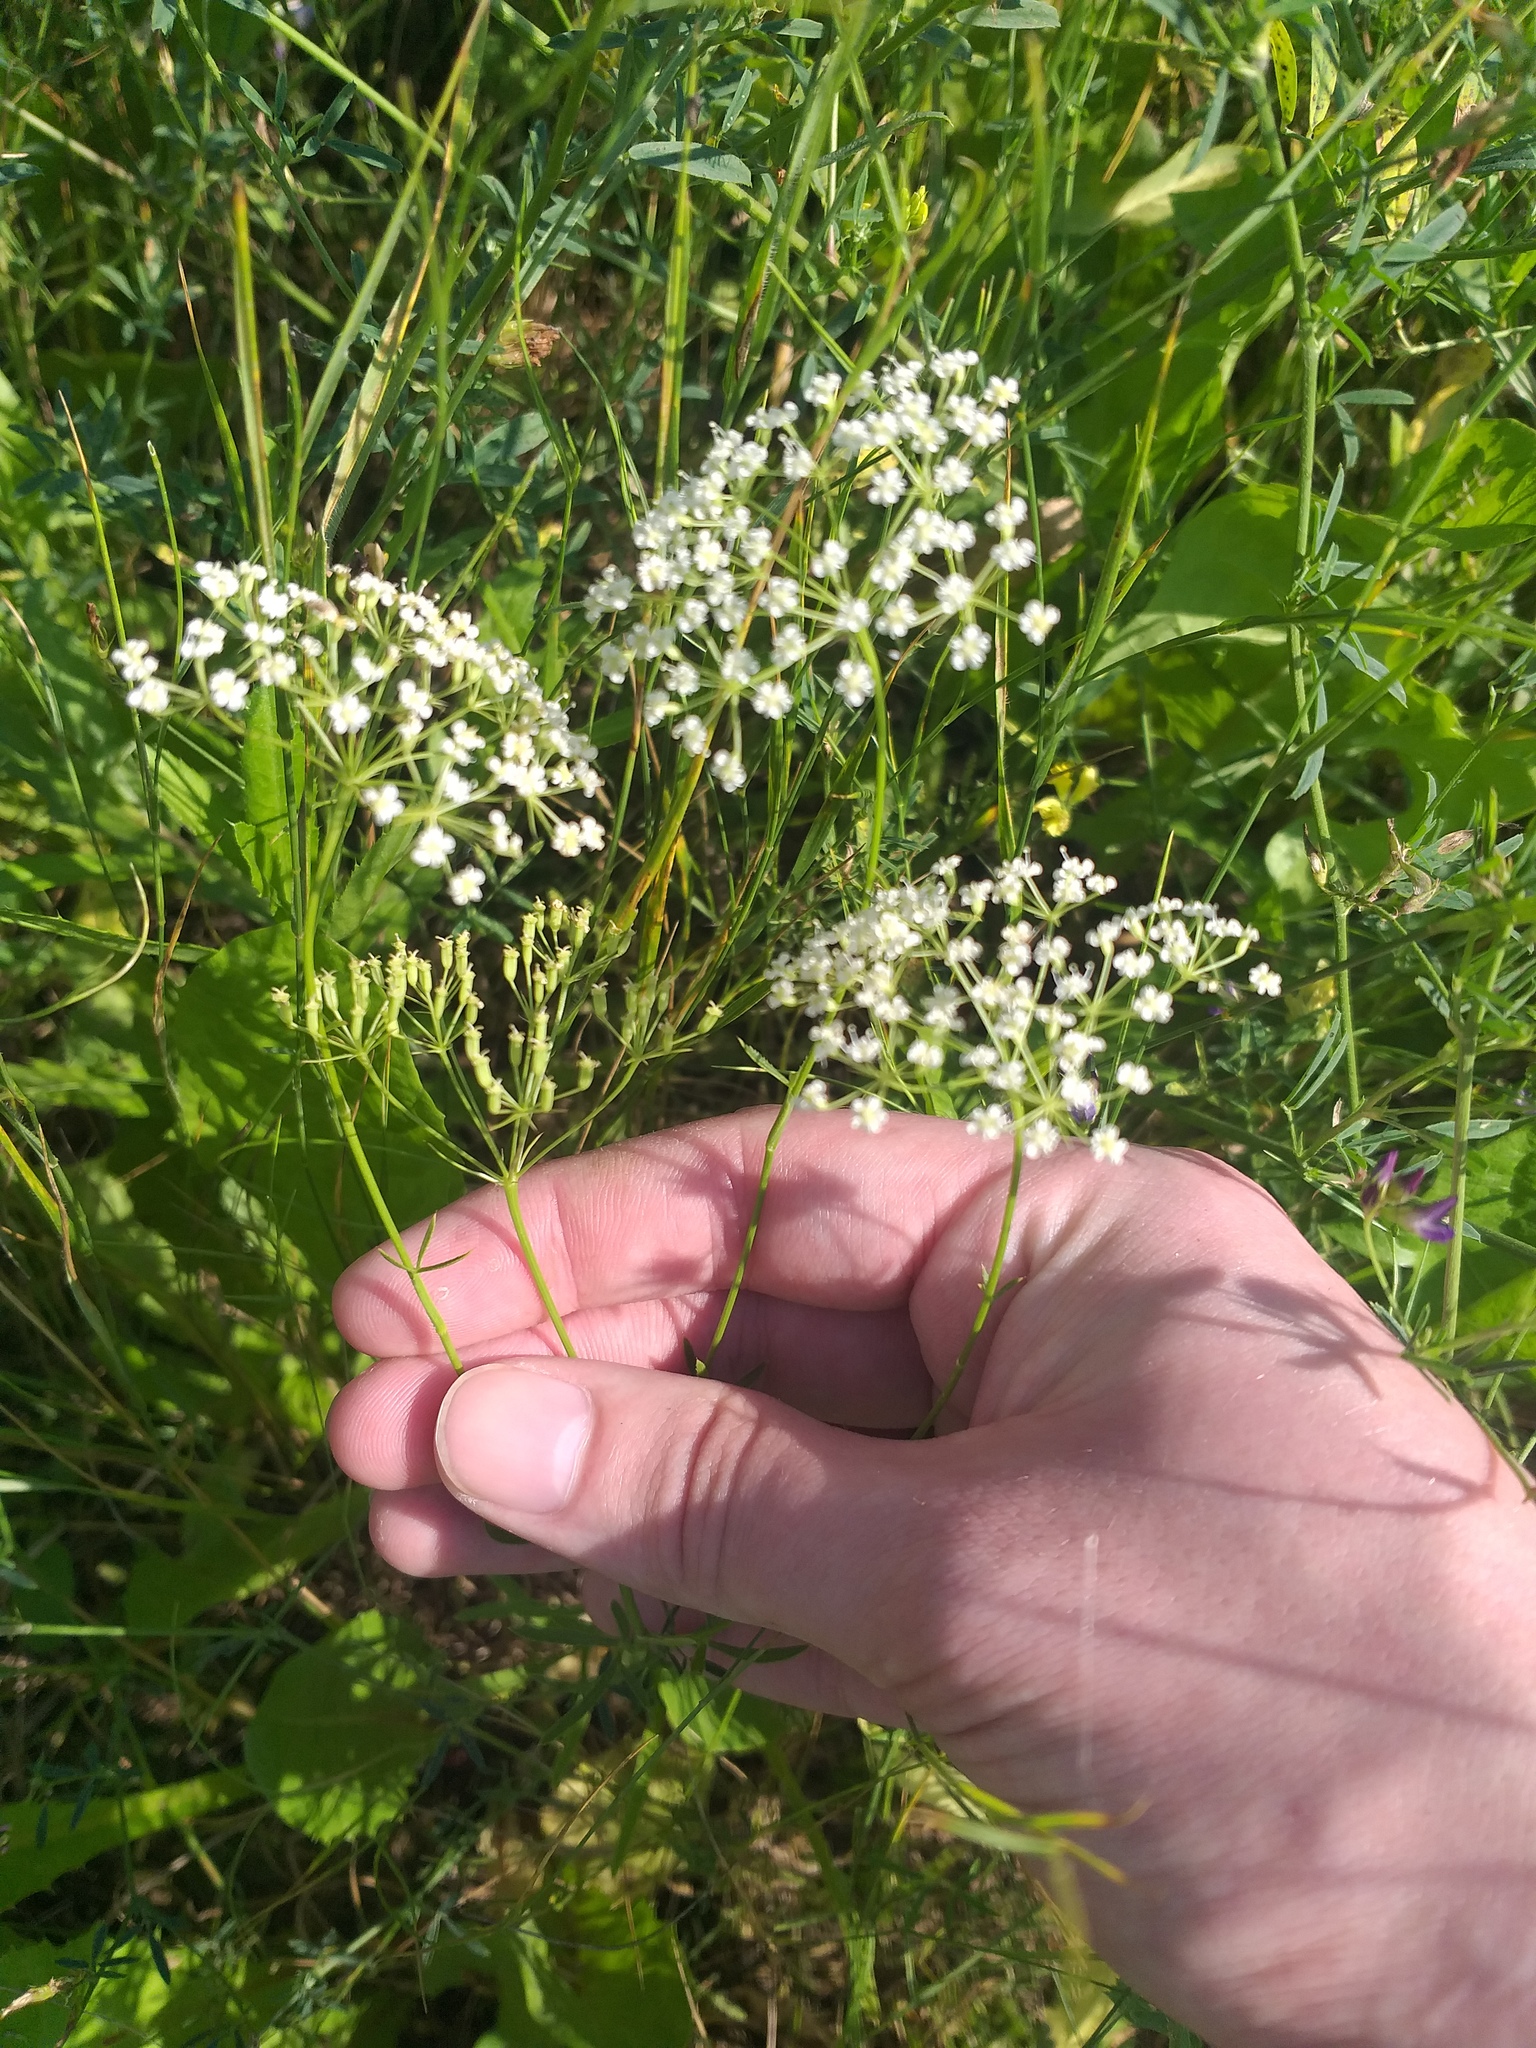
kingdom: Plantae
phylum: Tracheophyta
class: Magnoliopsida
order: Apiales
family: Apiaceae
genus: Falcaria
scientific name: Falcaria vulgaris
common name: Longleaf
